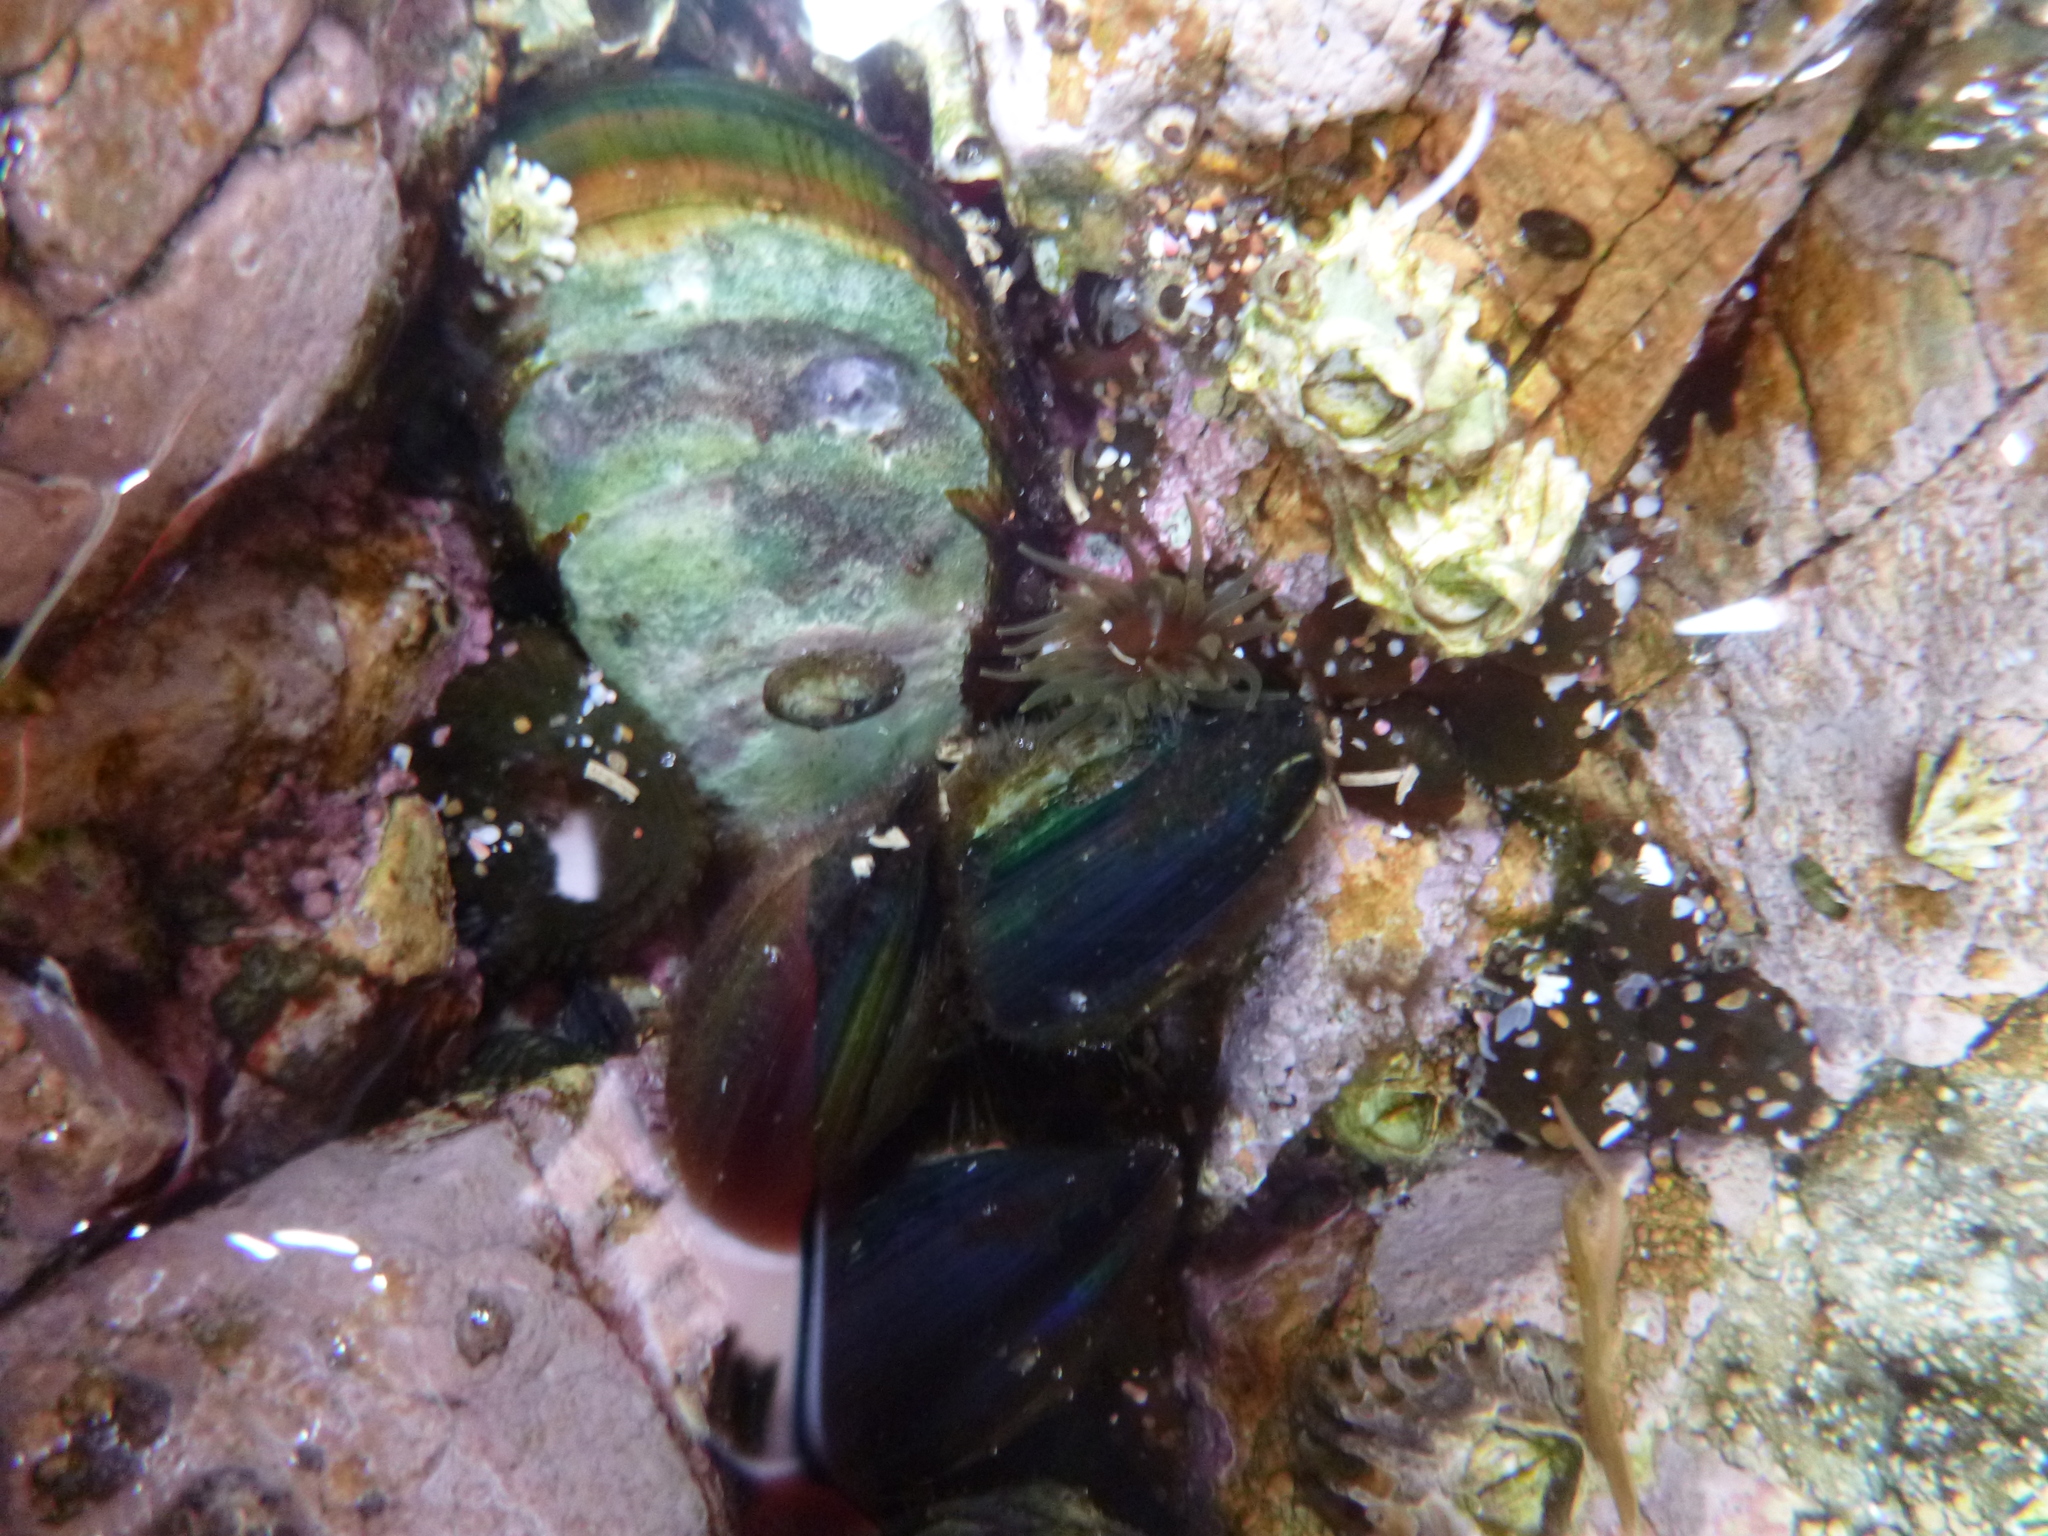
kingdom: Animalia
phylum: Mollusca
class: Bivalvia
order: Mytilida
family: Mytilidae
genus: Perna
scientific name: Perna canaliculus
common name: New zealand greenshelltm
